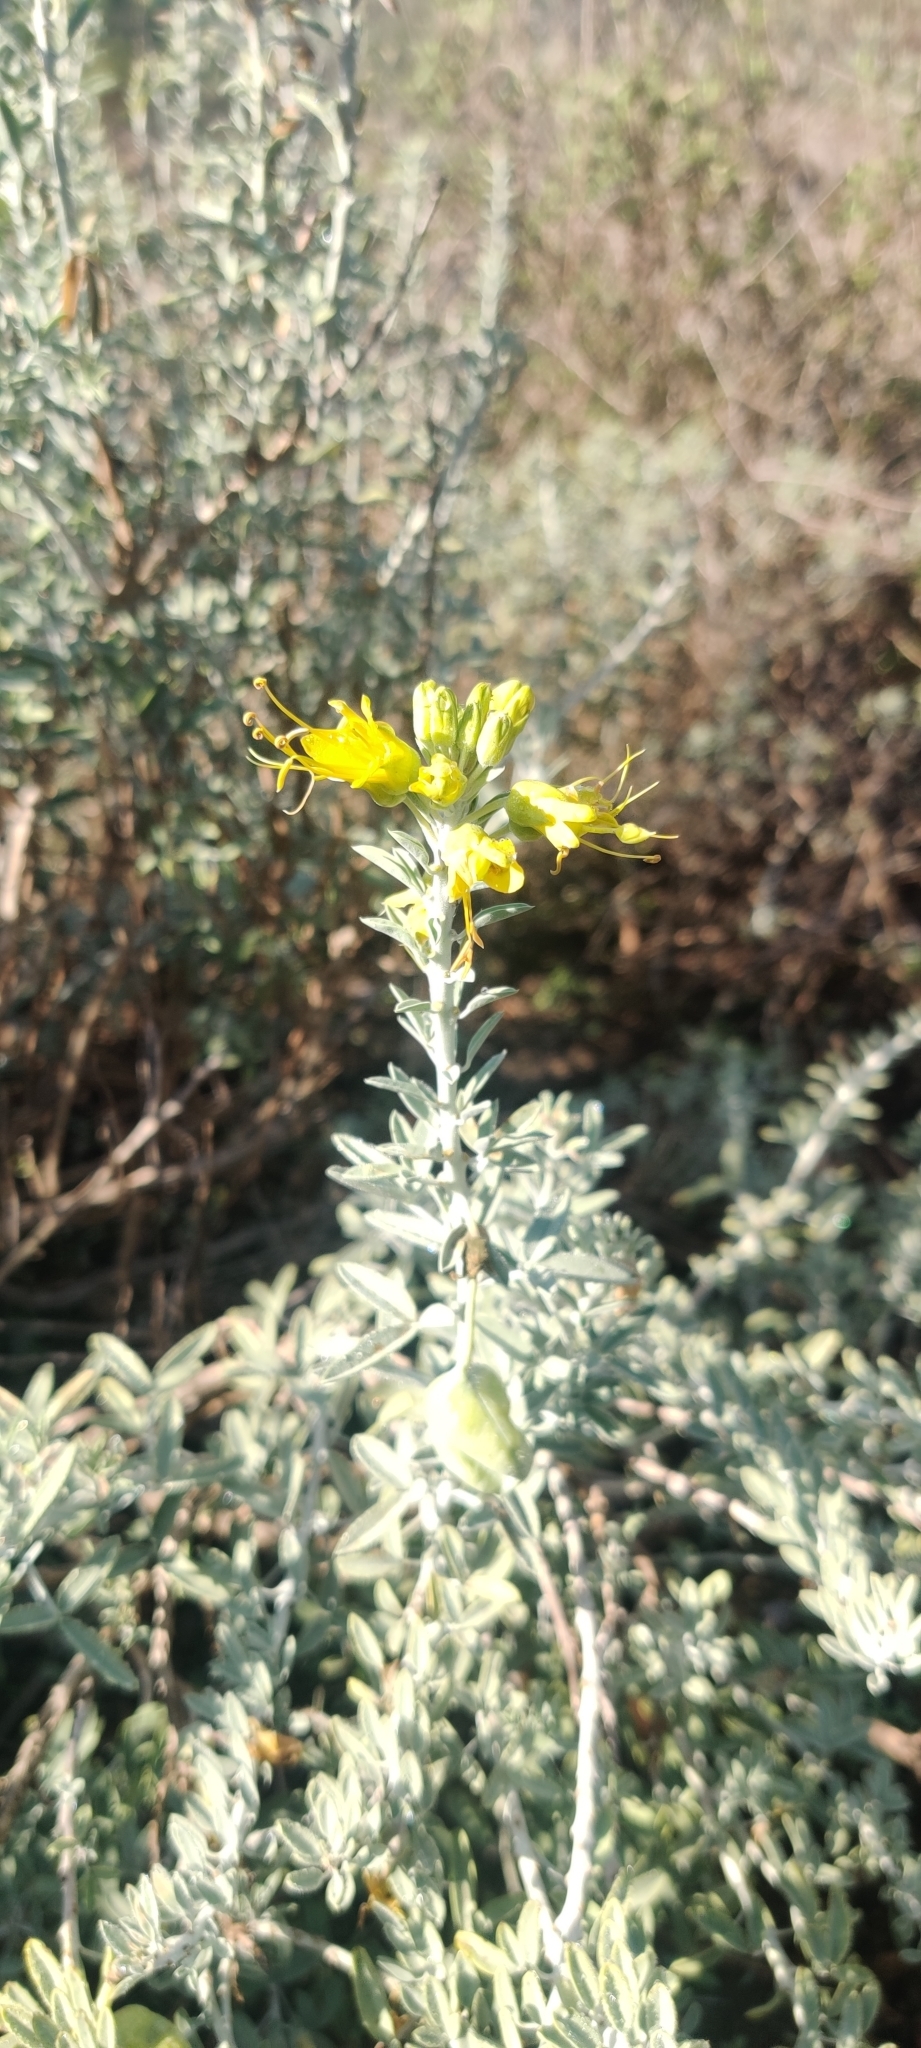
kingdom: Plantae
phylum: Tracheophyta
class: Magnoliopsida
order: Brassicales
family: Cleomaceae
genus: Cleomella
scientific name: Cleomella arborea
